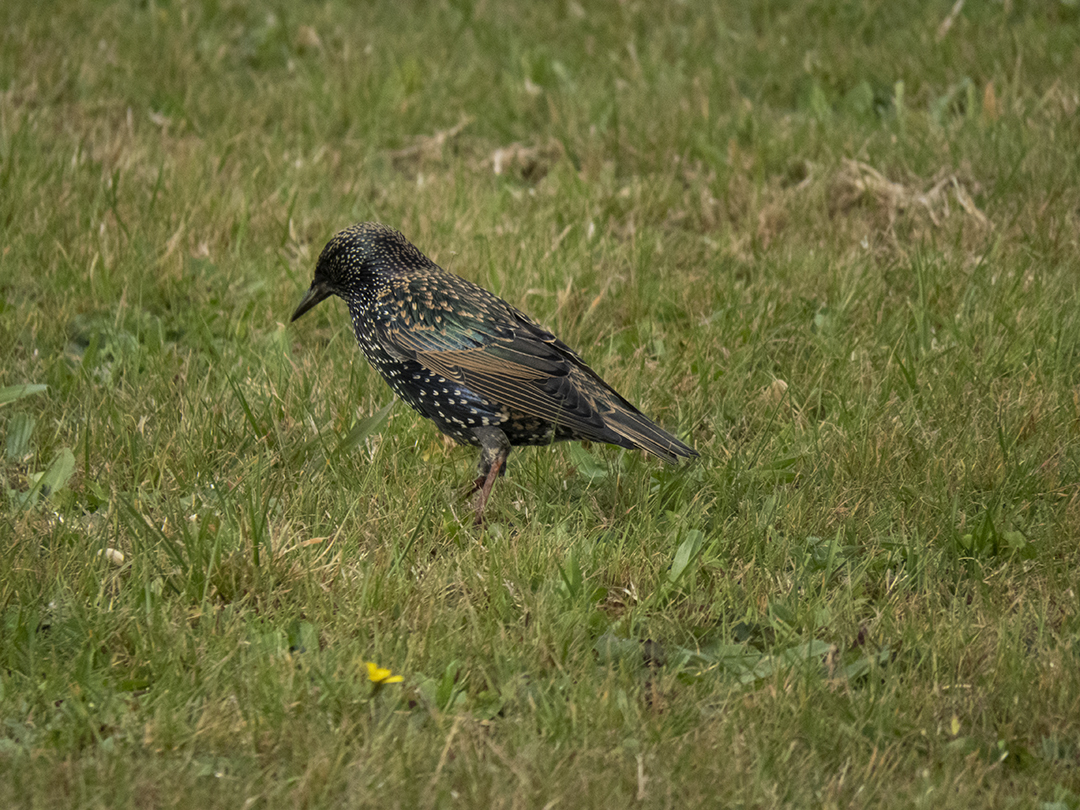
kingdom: Animalia
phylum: Chordata
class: Aves
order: Passeriformes
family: Sturnidae
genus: Sturnus
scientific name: Sturnus vulgaris
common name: Common starling
